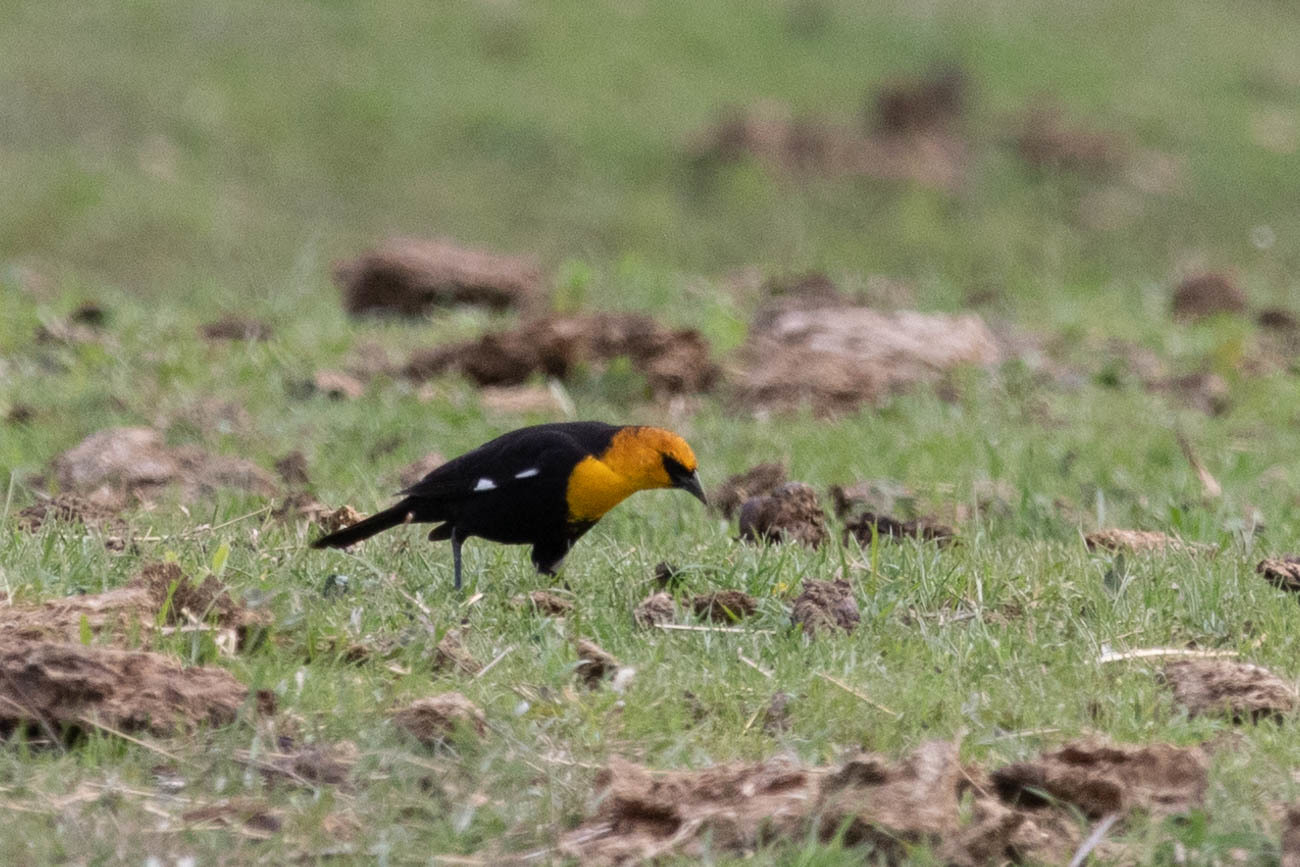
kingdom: Animalia
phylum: Chordata
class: Aves
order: Passeriformes
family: Icteridae
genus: Xanthocephalus
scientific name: Xanthocephalus xanthocephalus
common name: Yellow-headed blackbird
